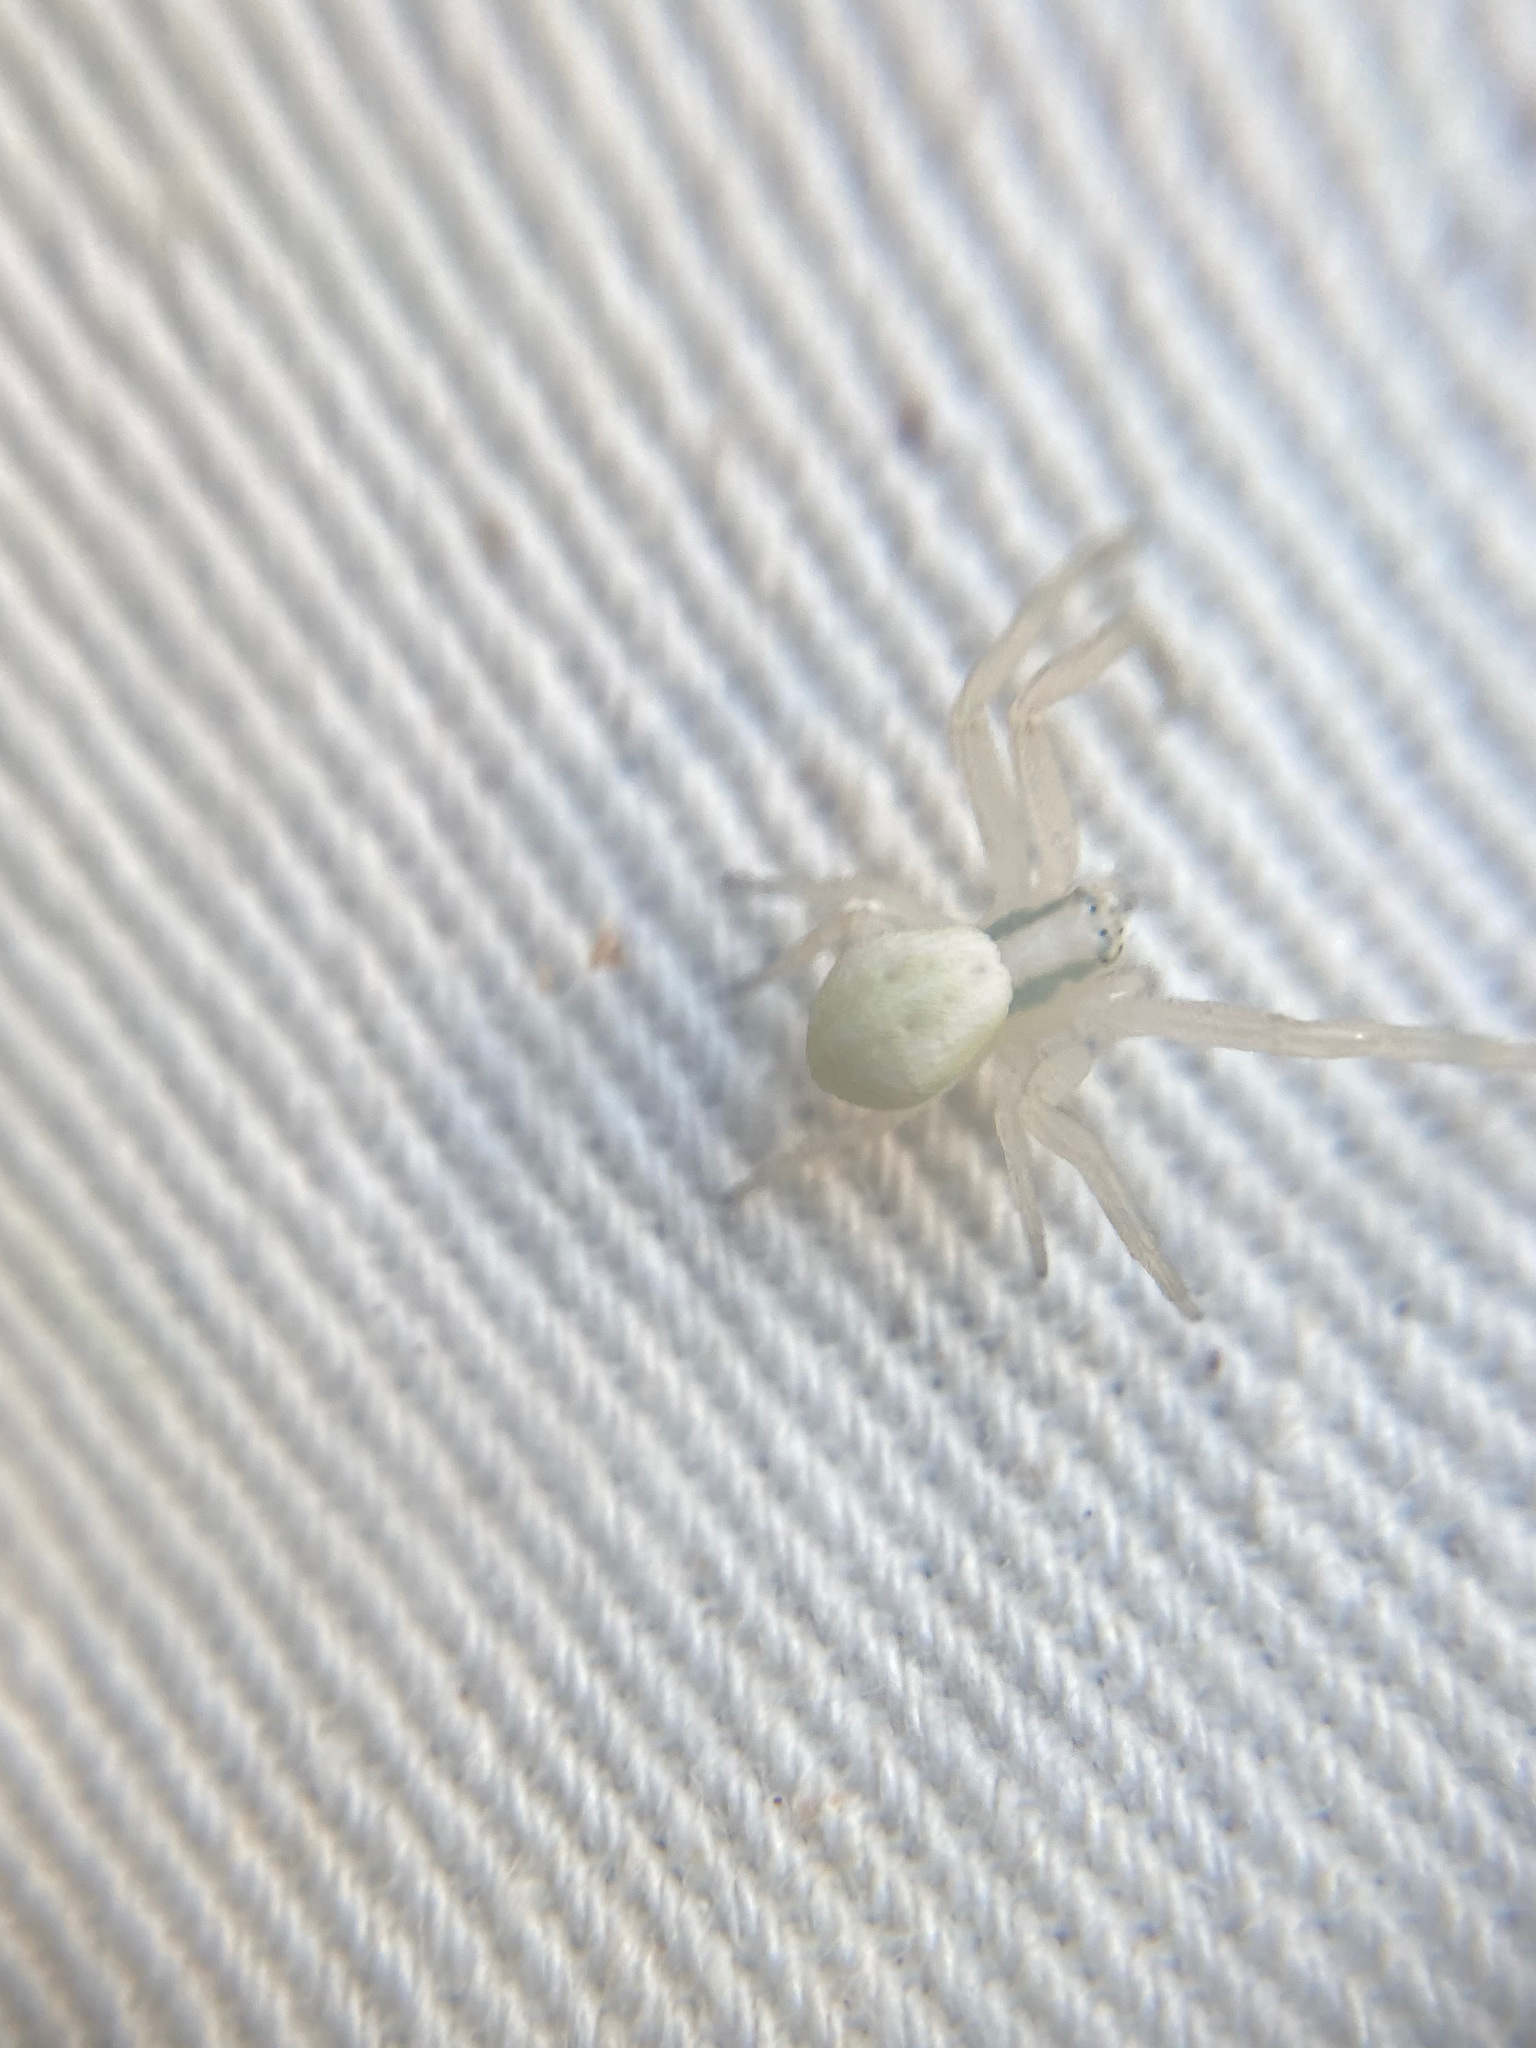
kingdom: Animalia
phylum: Arthropoda
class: Arachnida
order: Araneae
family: Thomisidae
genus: Misumena
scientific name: Misumena vatia
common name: Goldenrod crab spider
